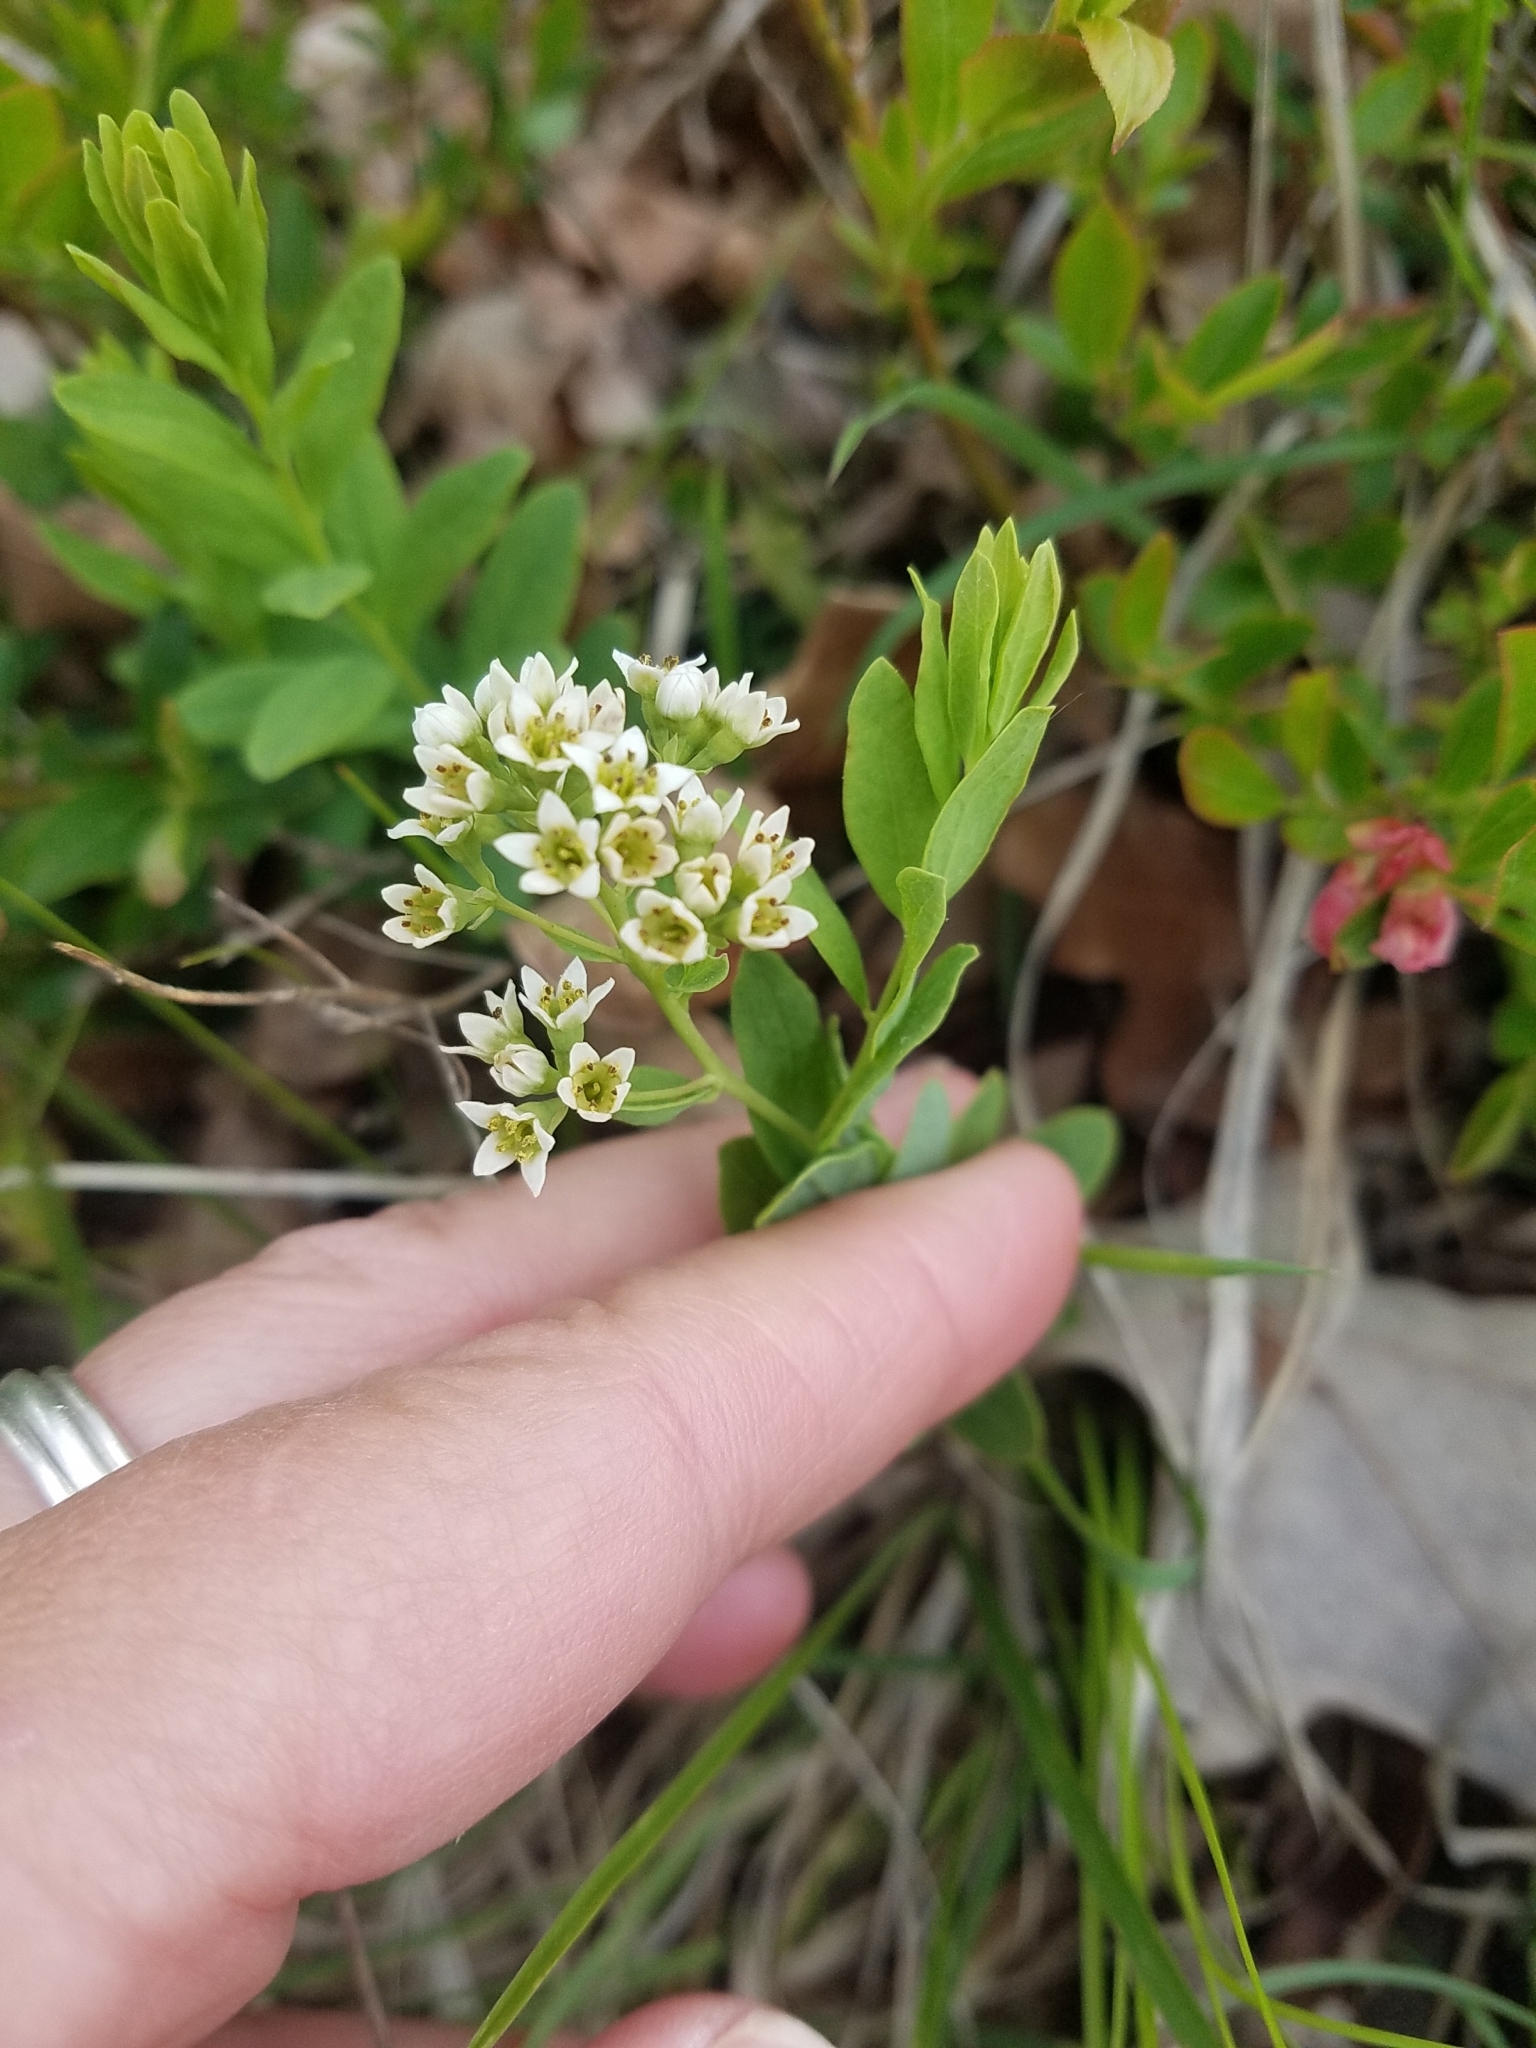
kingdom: Plantae
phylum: Tracheophyta
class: Magnoliopsida
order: Santalales
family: Comandraceae
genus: Comandra
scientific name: Comandra umbellata
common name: Bastard toadflax
